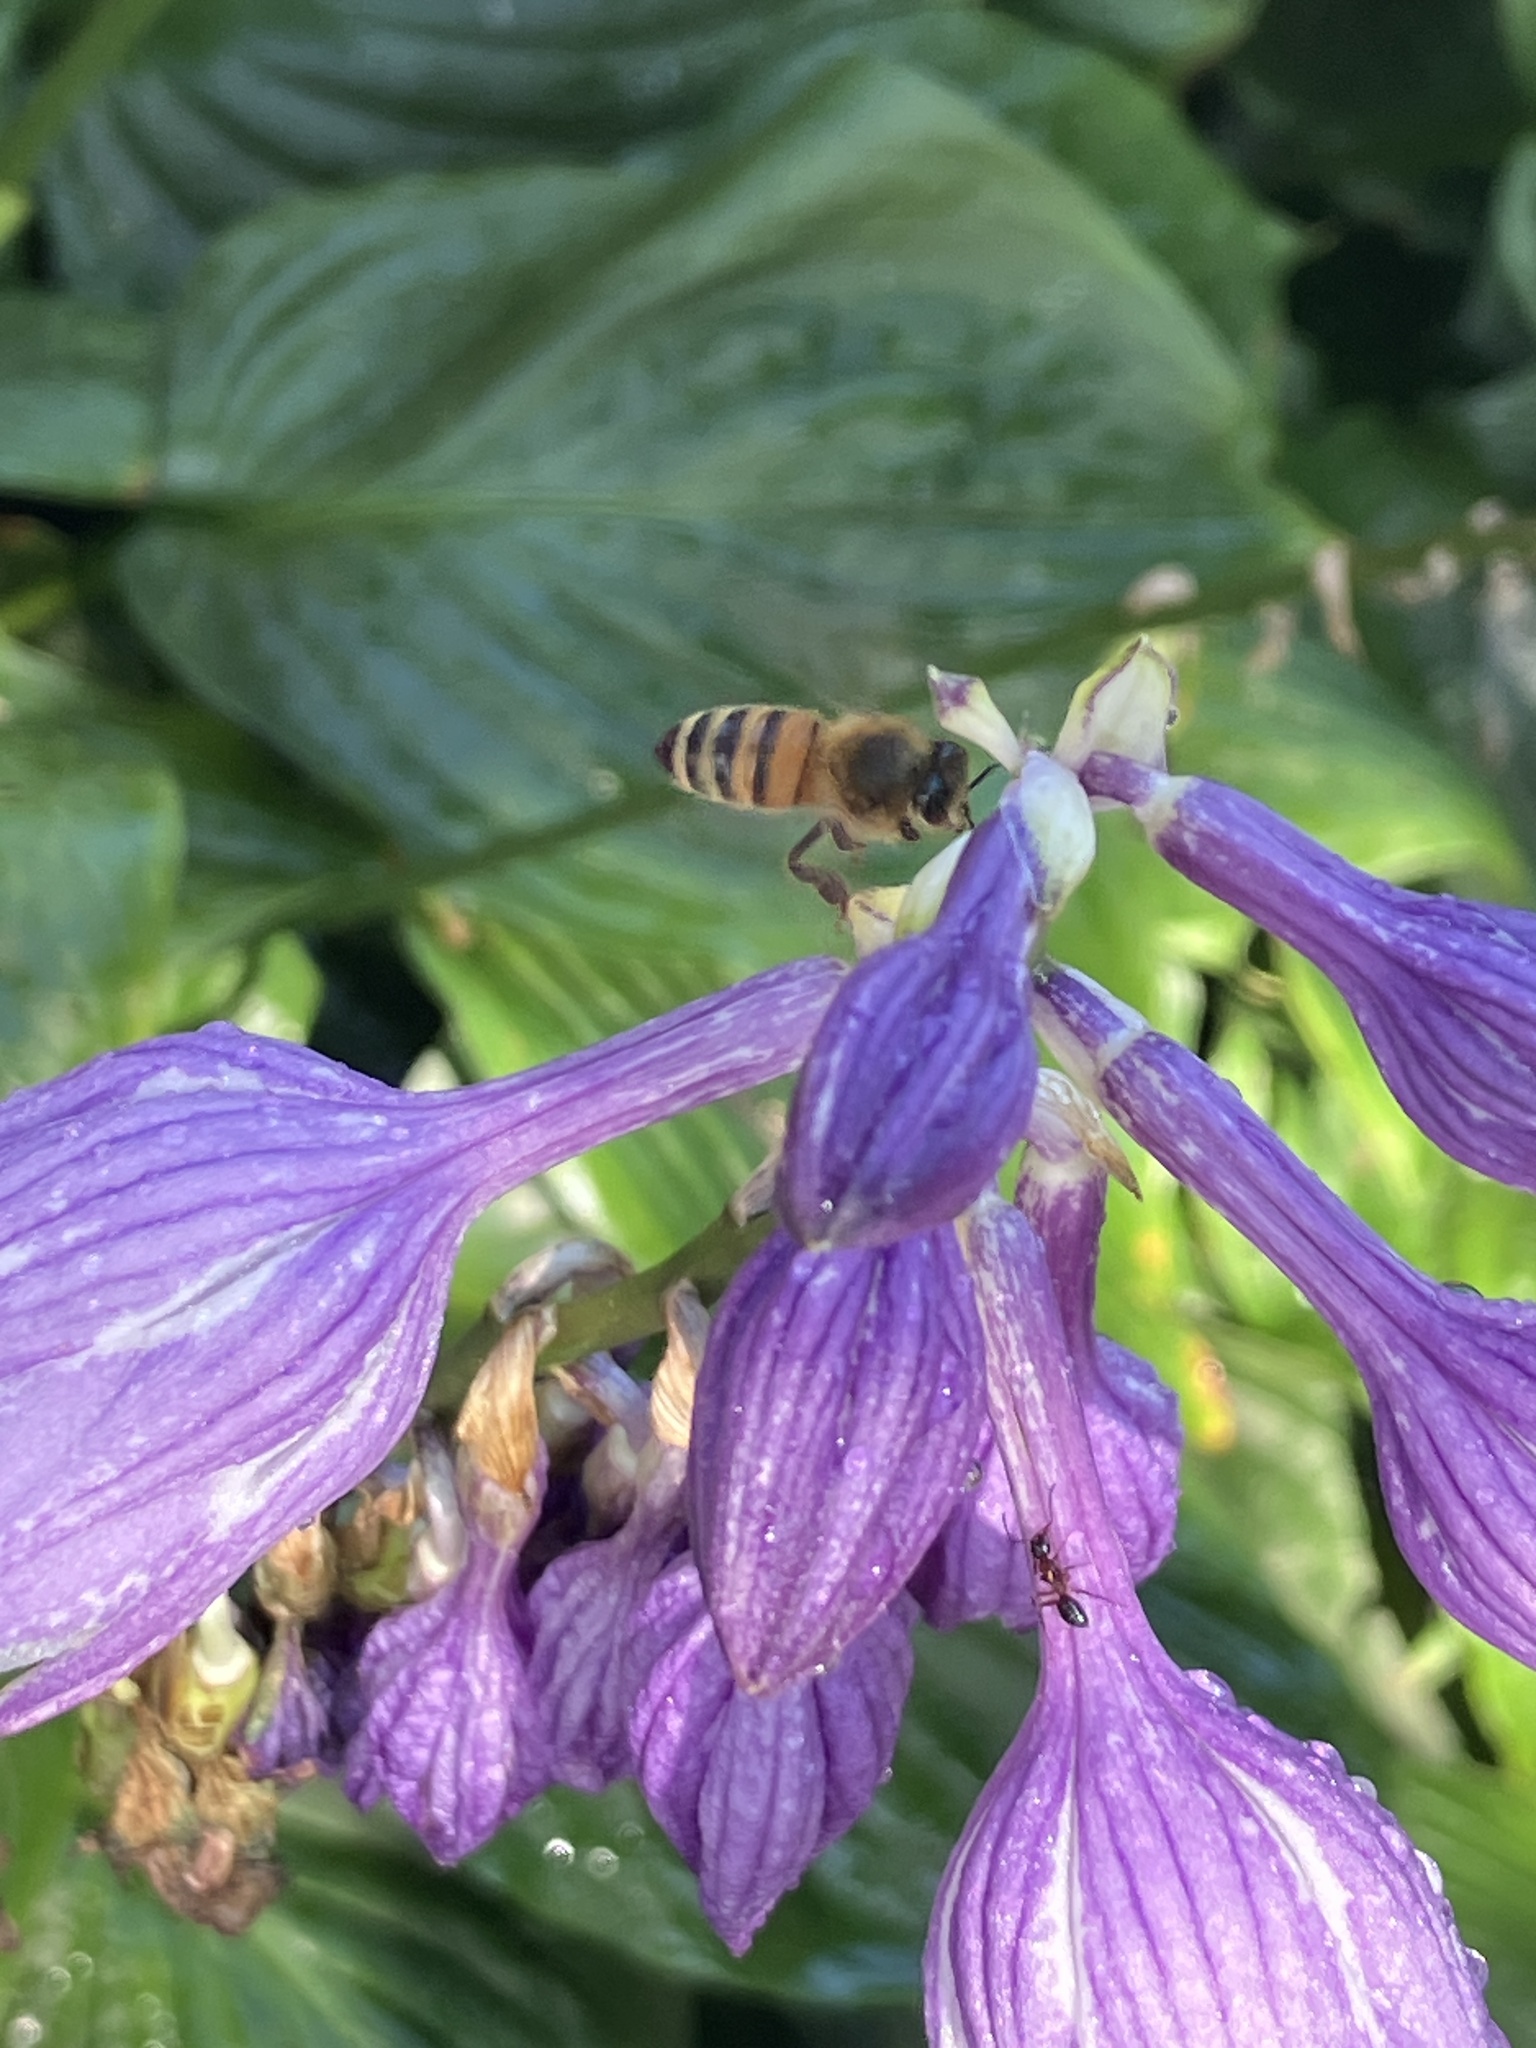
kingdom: Animalia
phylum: Arthropoda
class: Insecta
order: Hymenoptera
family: Apidae
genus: Apis
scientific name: Apis mellifera
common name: Honey bee
